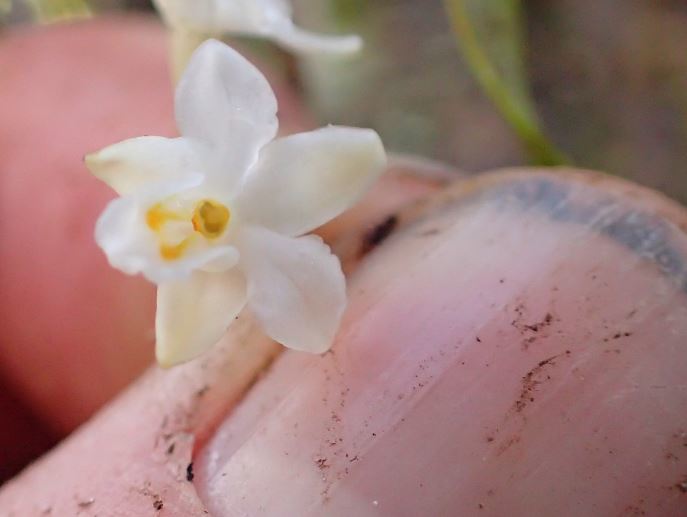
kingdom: Plantae
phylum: Tracheophyta
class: Liliopsida
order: Asparagales
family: Orchidaceae
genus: Earina
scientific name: Earina autumnalis
